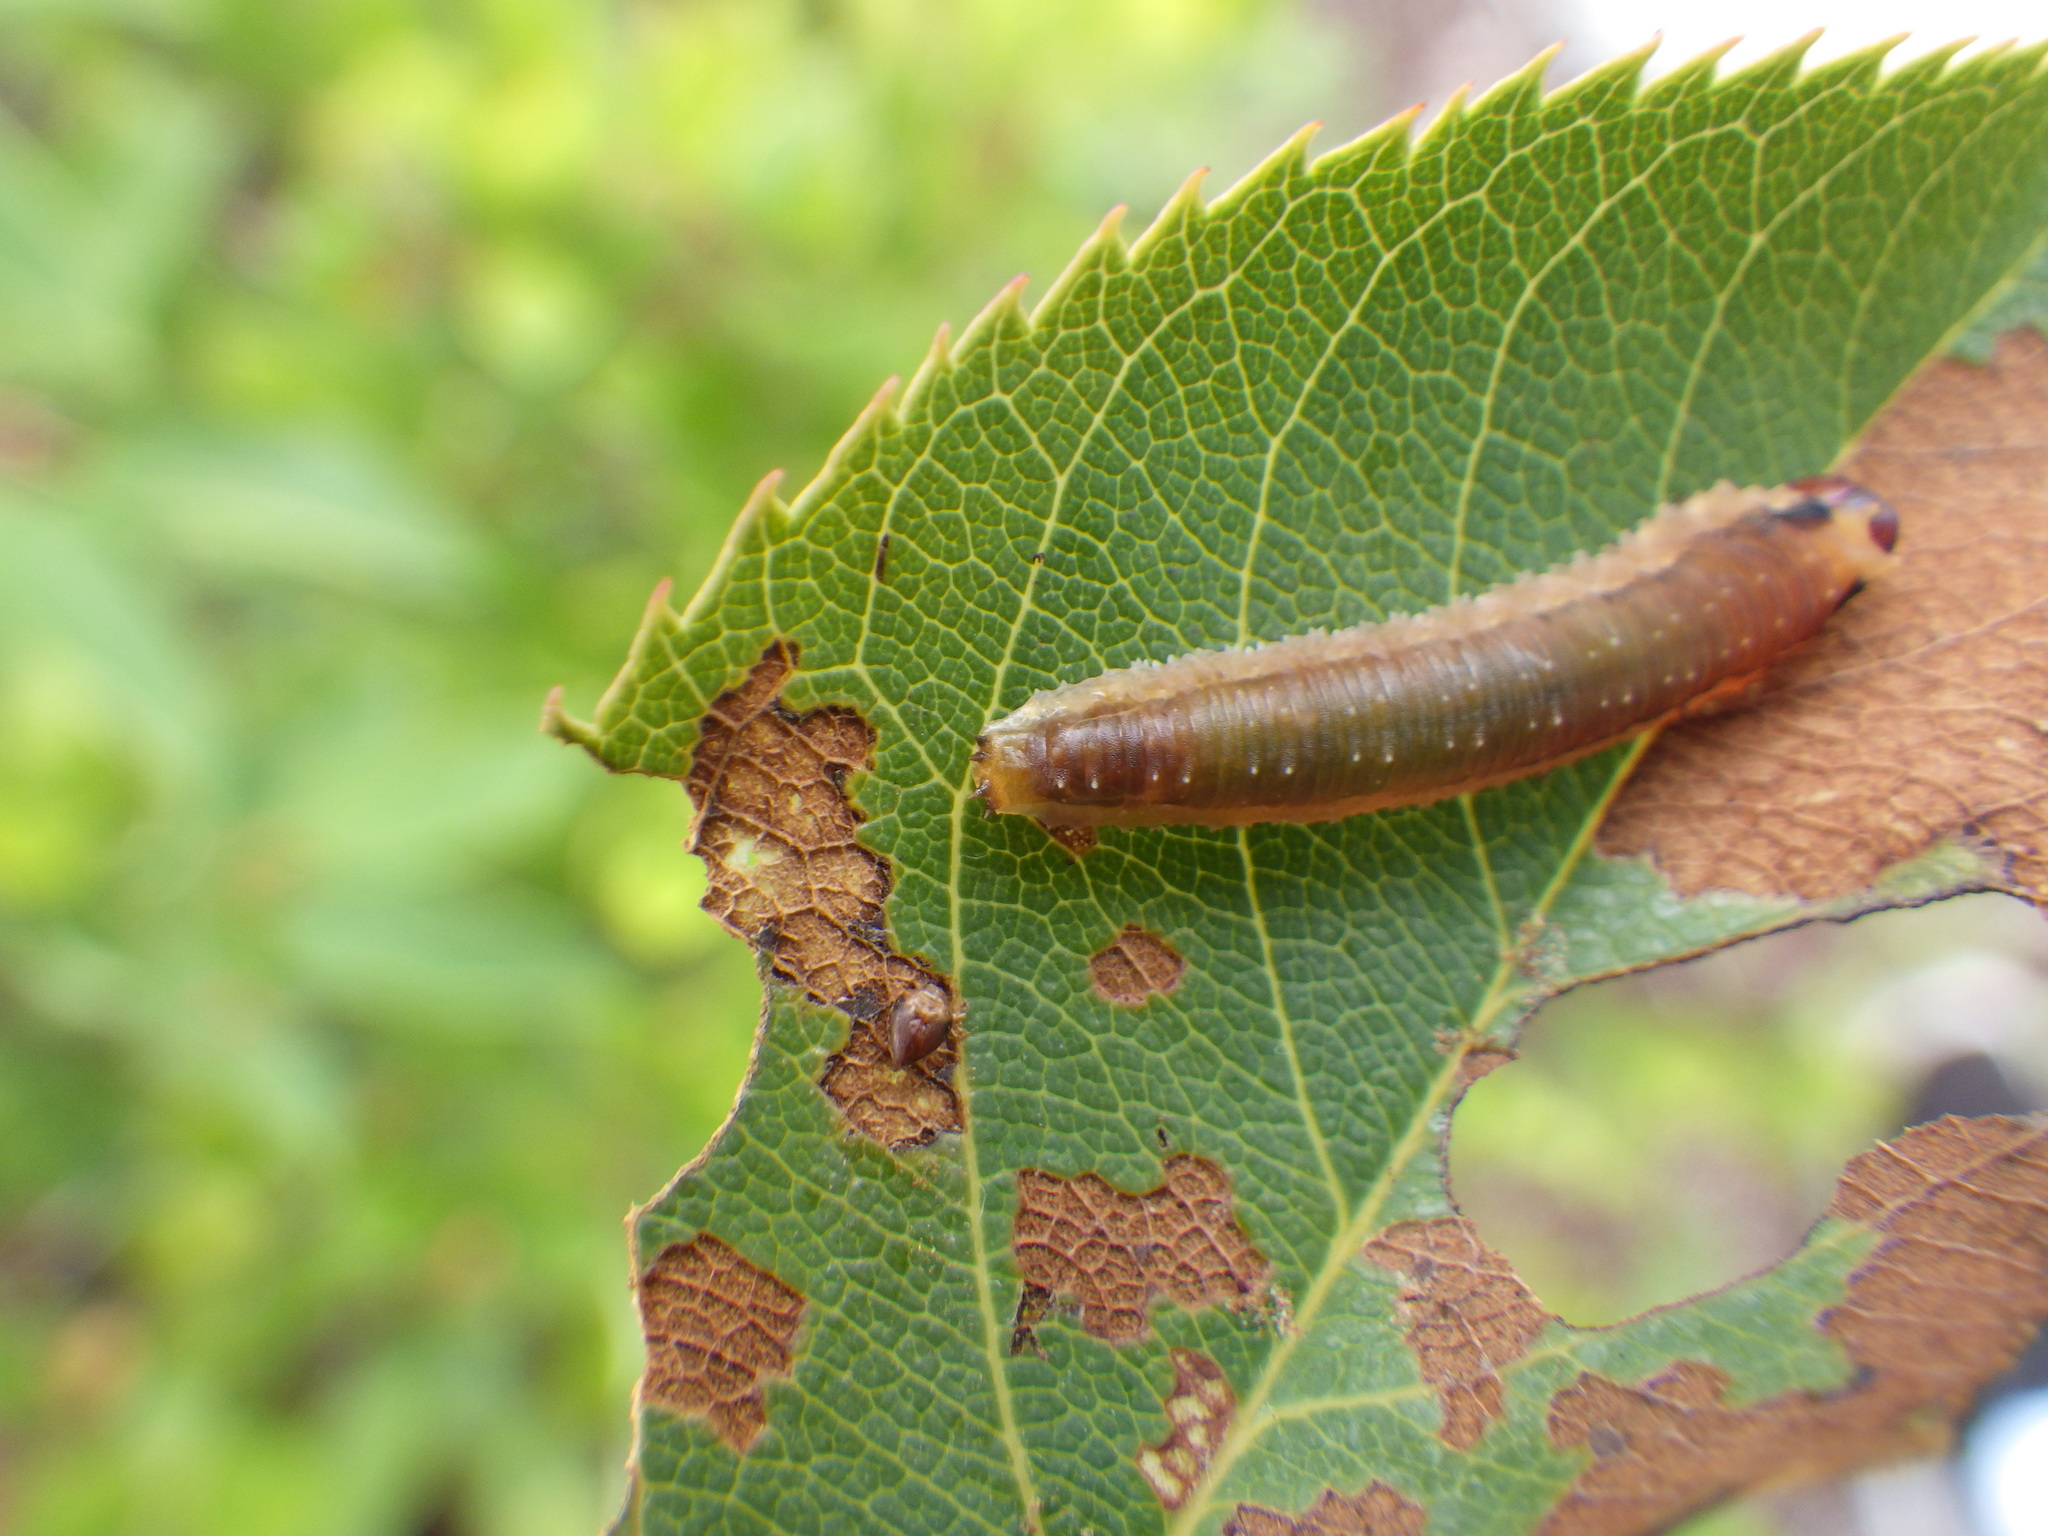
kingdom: Animalia
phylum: Arthropoda
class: Insecta
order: Hymenoptera
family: Tenthredinidae
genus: Dimorphopteryx
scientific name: Dimorphopteryx abnormis
